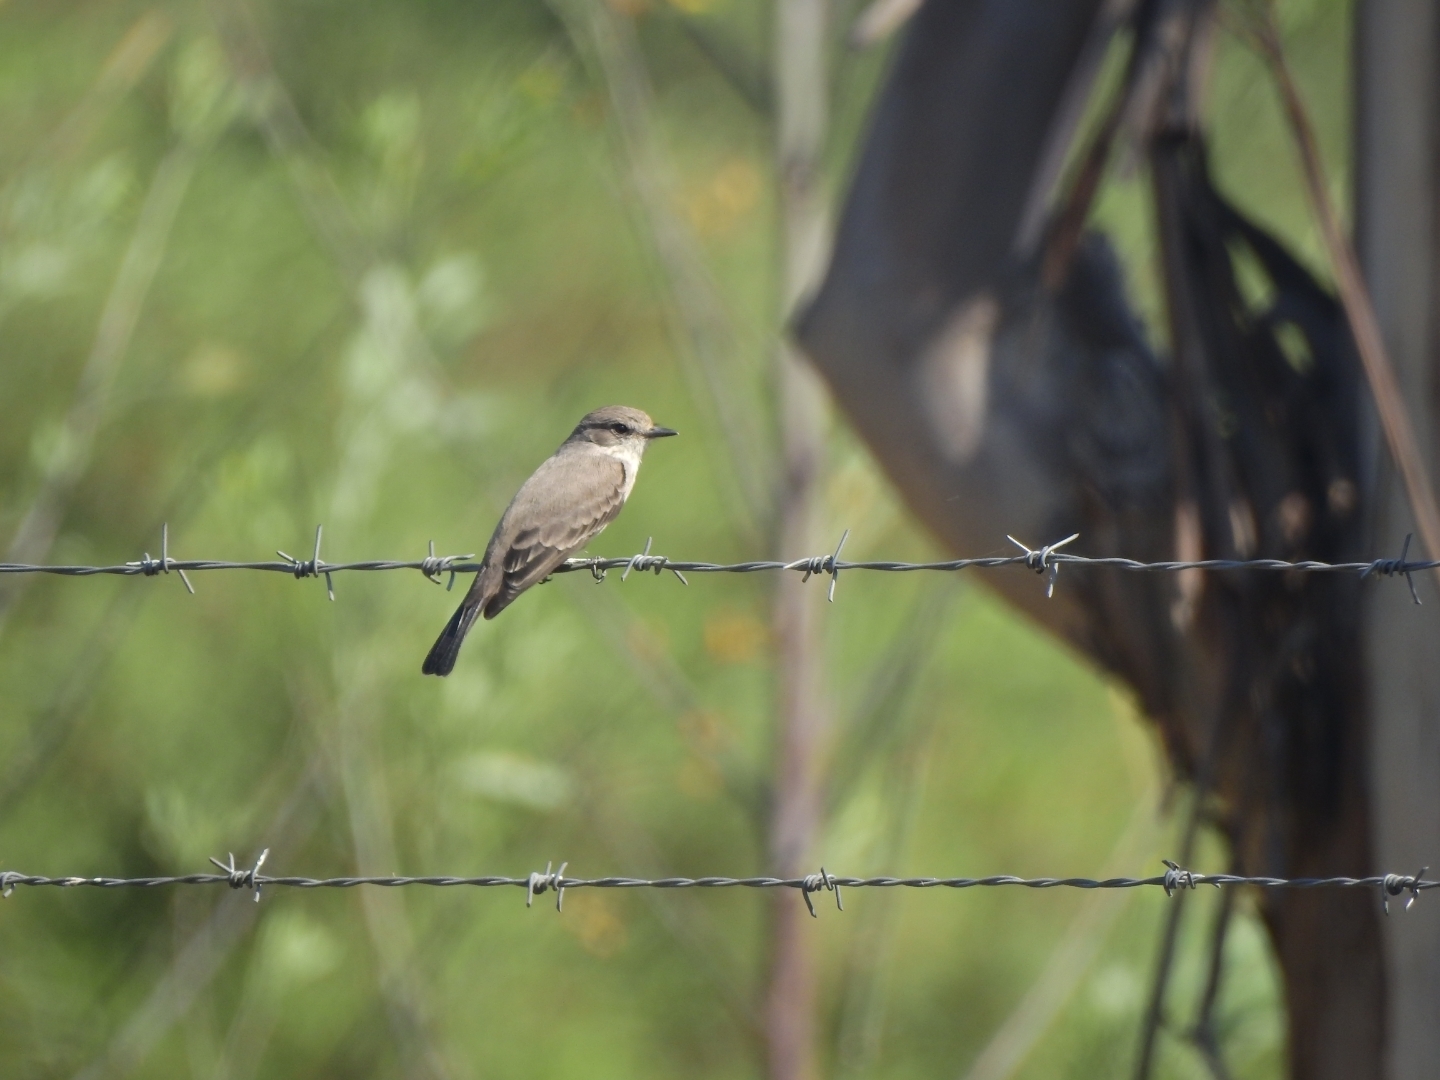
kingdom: Animalia
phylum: Chordata
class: Aves
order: Passeriformes
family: Tyrannidae
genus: Pyrocephalus
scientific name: Pyrocephalus rubinus
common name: Vermilion flycatcher
